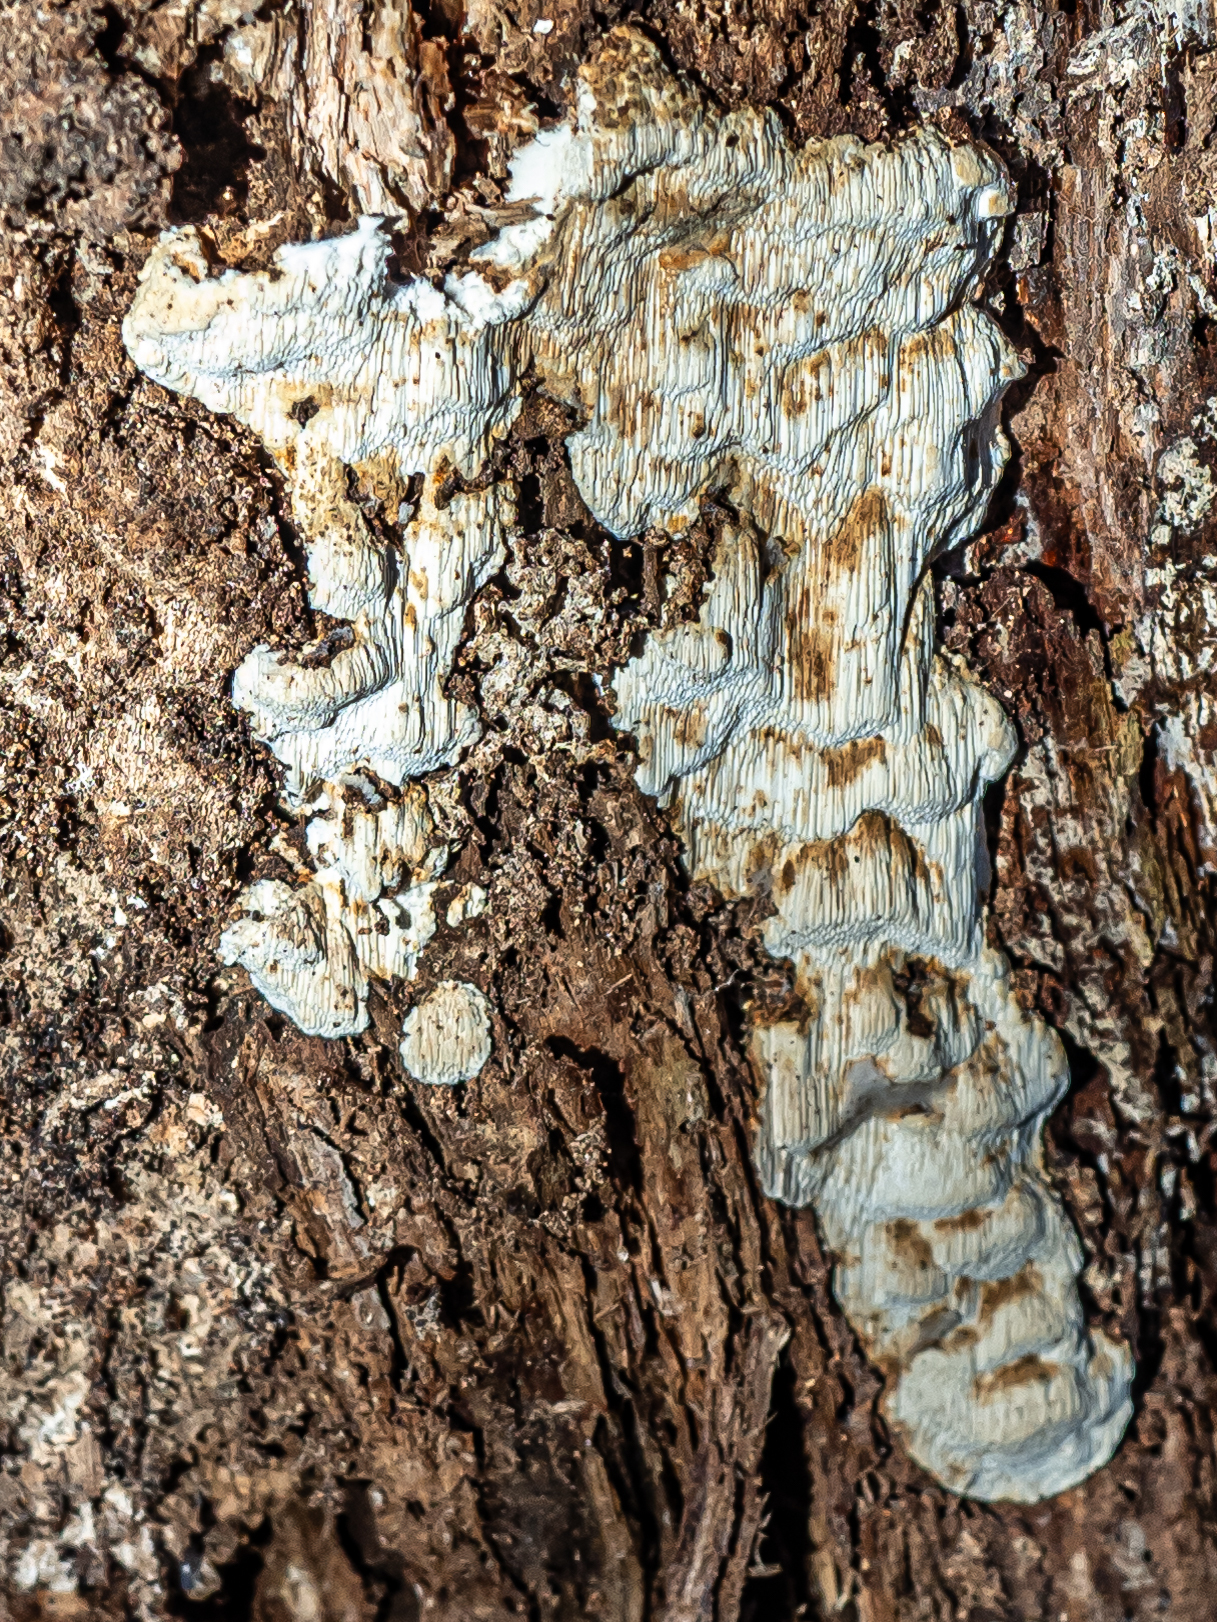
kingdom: Fungi
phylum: Basidiomycota
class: Agaricomycetes
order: Polyporales
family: Fomitopsidaceae
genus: Neoantrodia
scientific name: Neoantrodia serialis
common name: Serried porecrust
